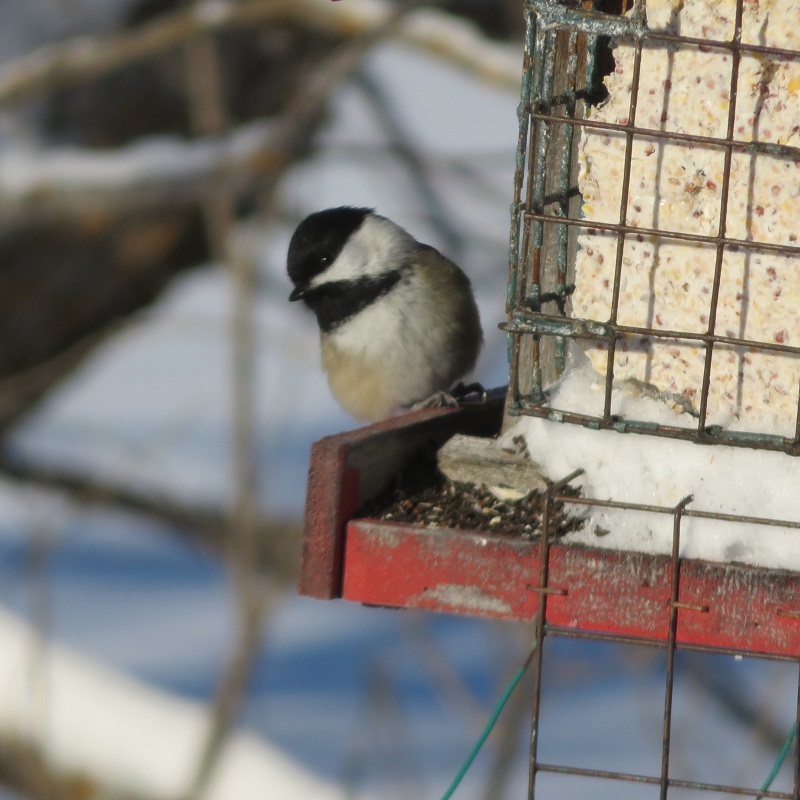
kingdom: Animalia
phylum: Chordata
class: Aves
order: Passeriformes
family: Paridae
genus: Poecile
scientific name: Poecile atricapillus
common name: Black-capped chickadee
